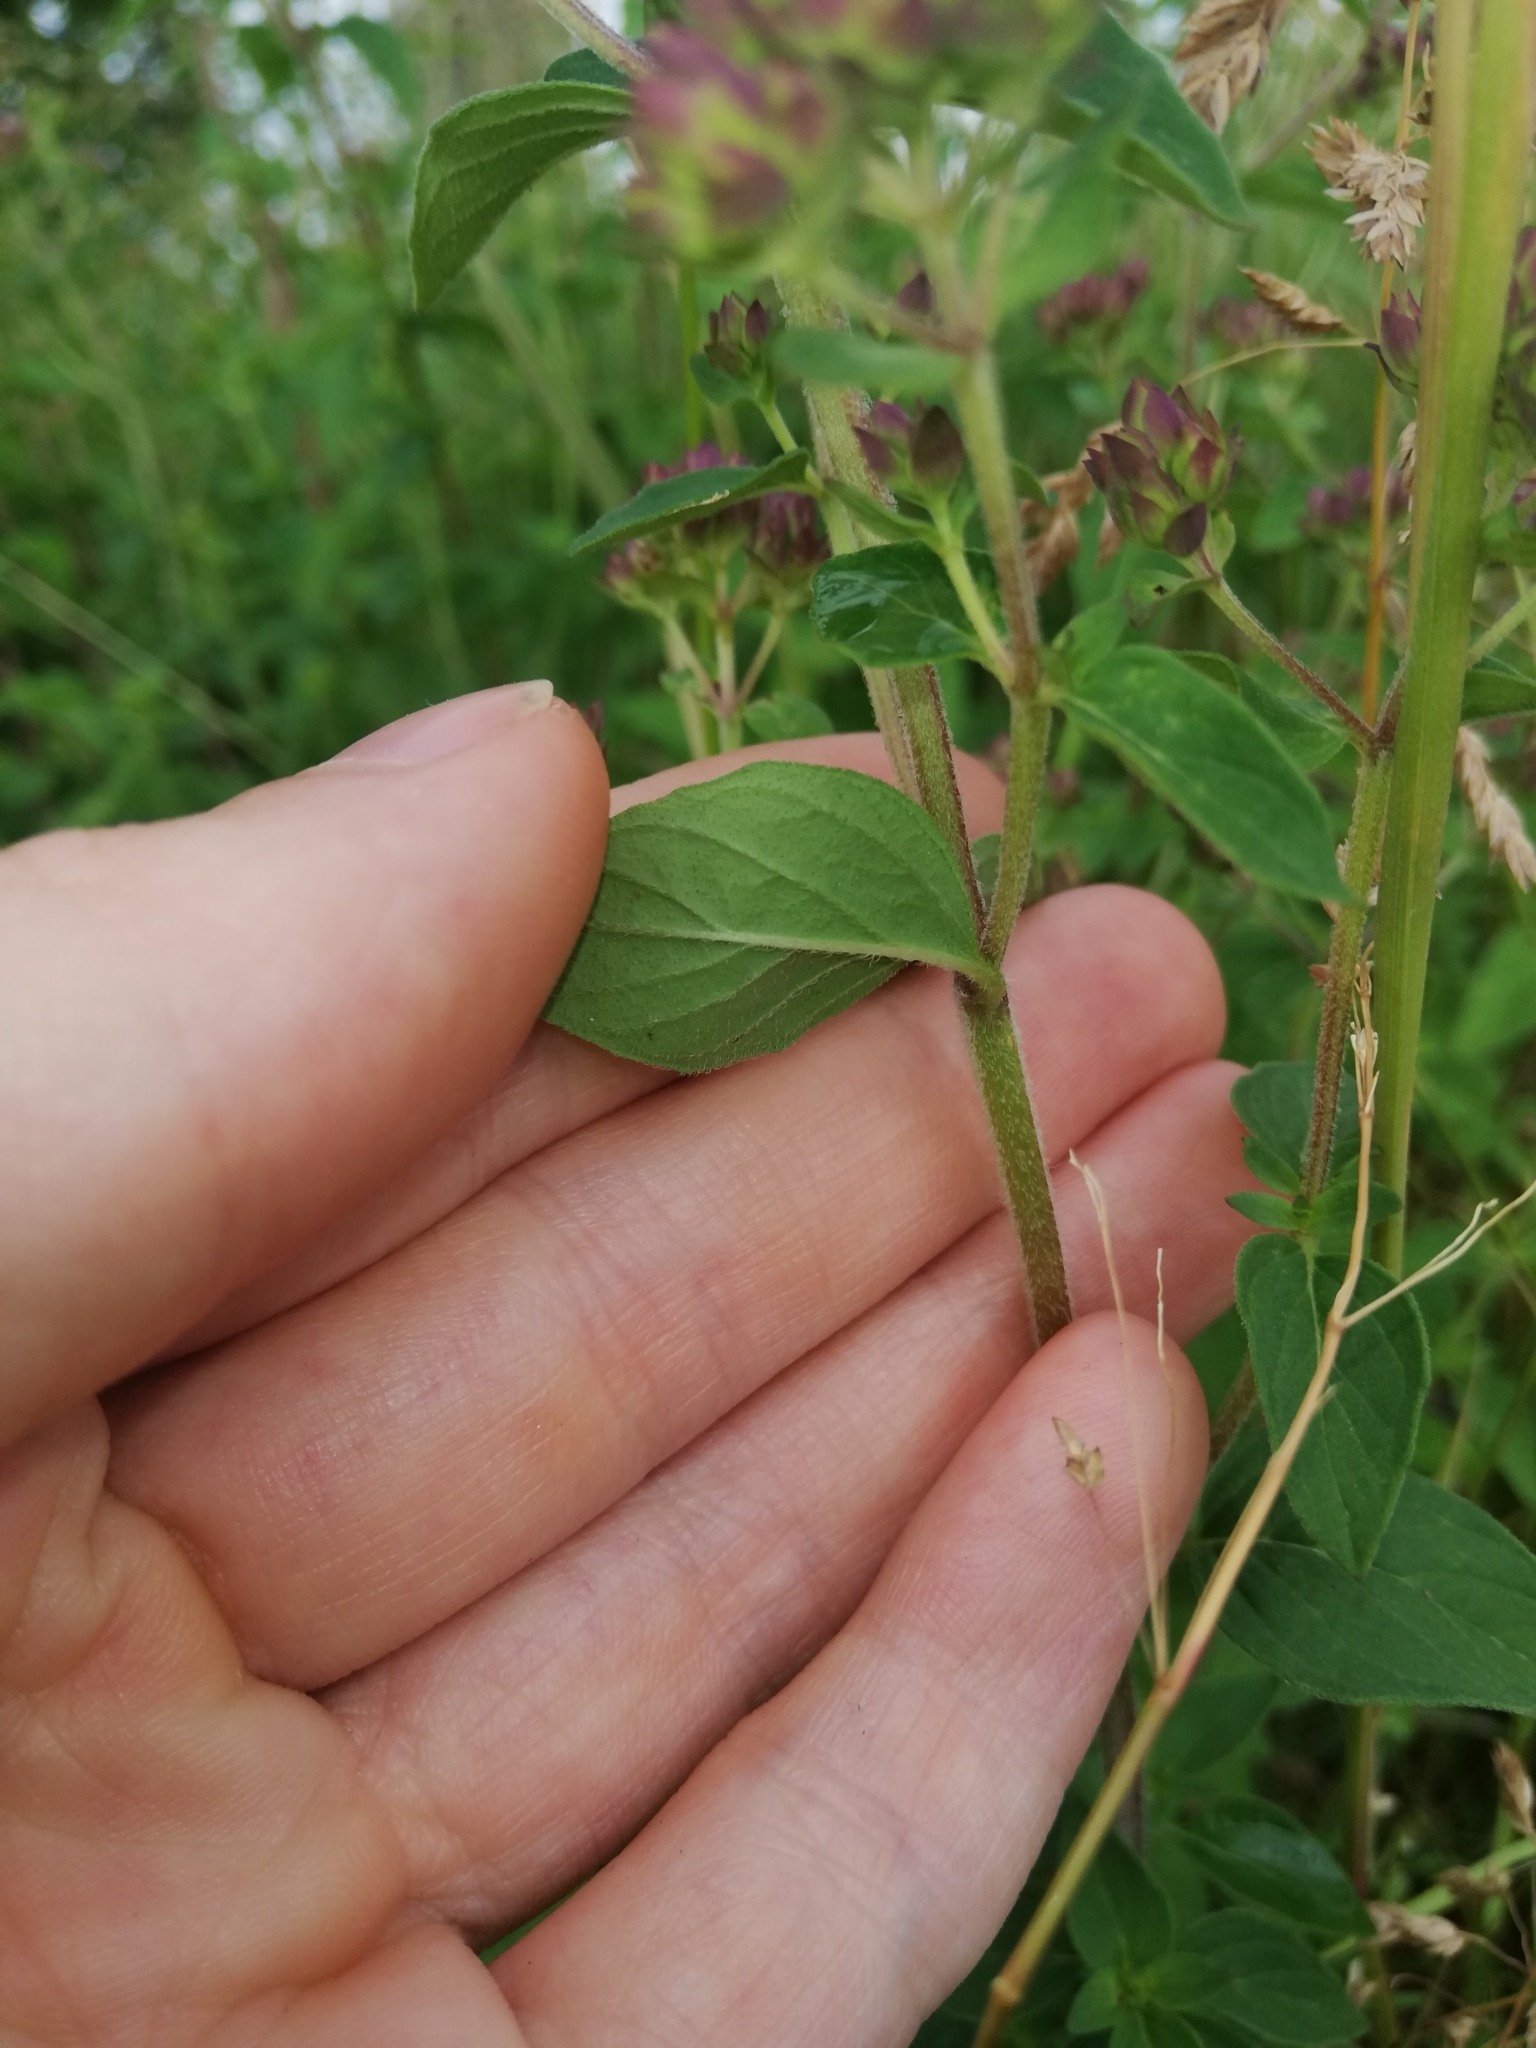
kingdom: Plantae
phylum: Tracheophyta
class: Magnoliopsida
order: Lamiales
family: Lamiaceae
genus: Origanum
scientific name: Origanum vulgare
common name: Wild marjoram
